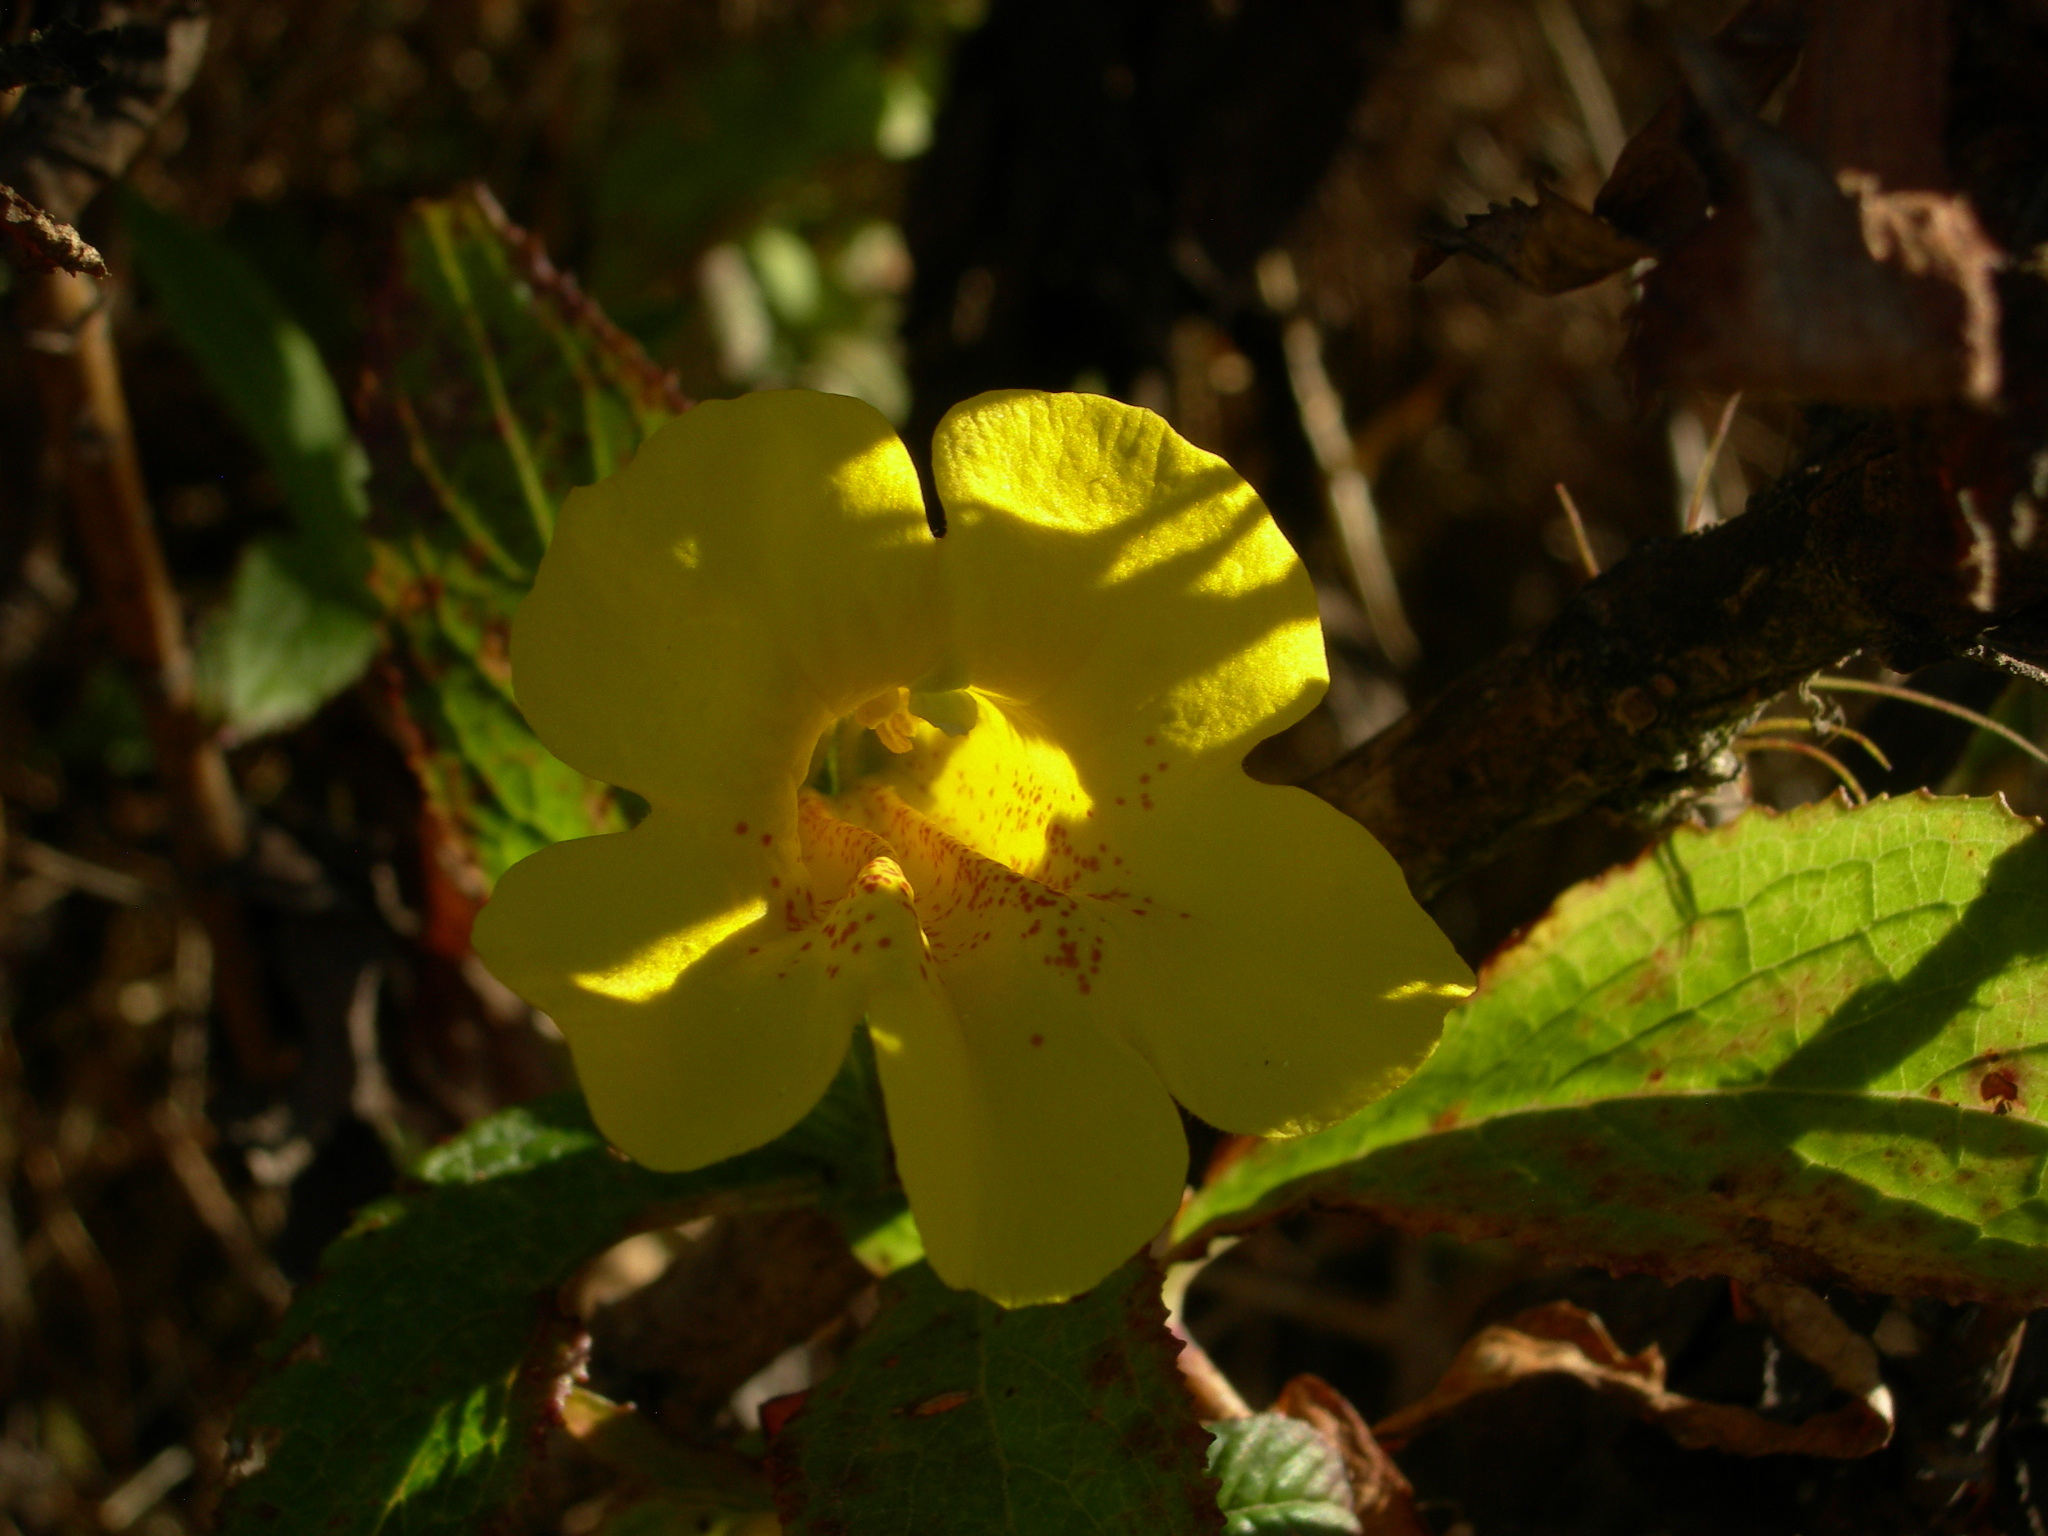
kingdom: Plantae
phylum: Tracheophyta
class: Magnoliopsida
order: Lamiales
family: Phrymaceae
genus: Hemichaena
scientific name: Hemichaena fruticosa
